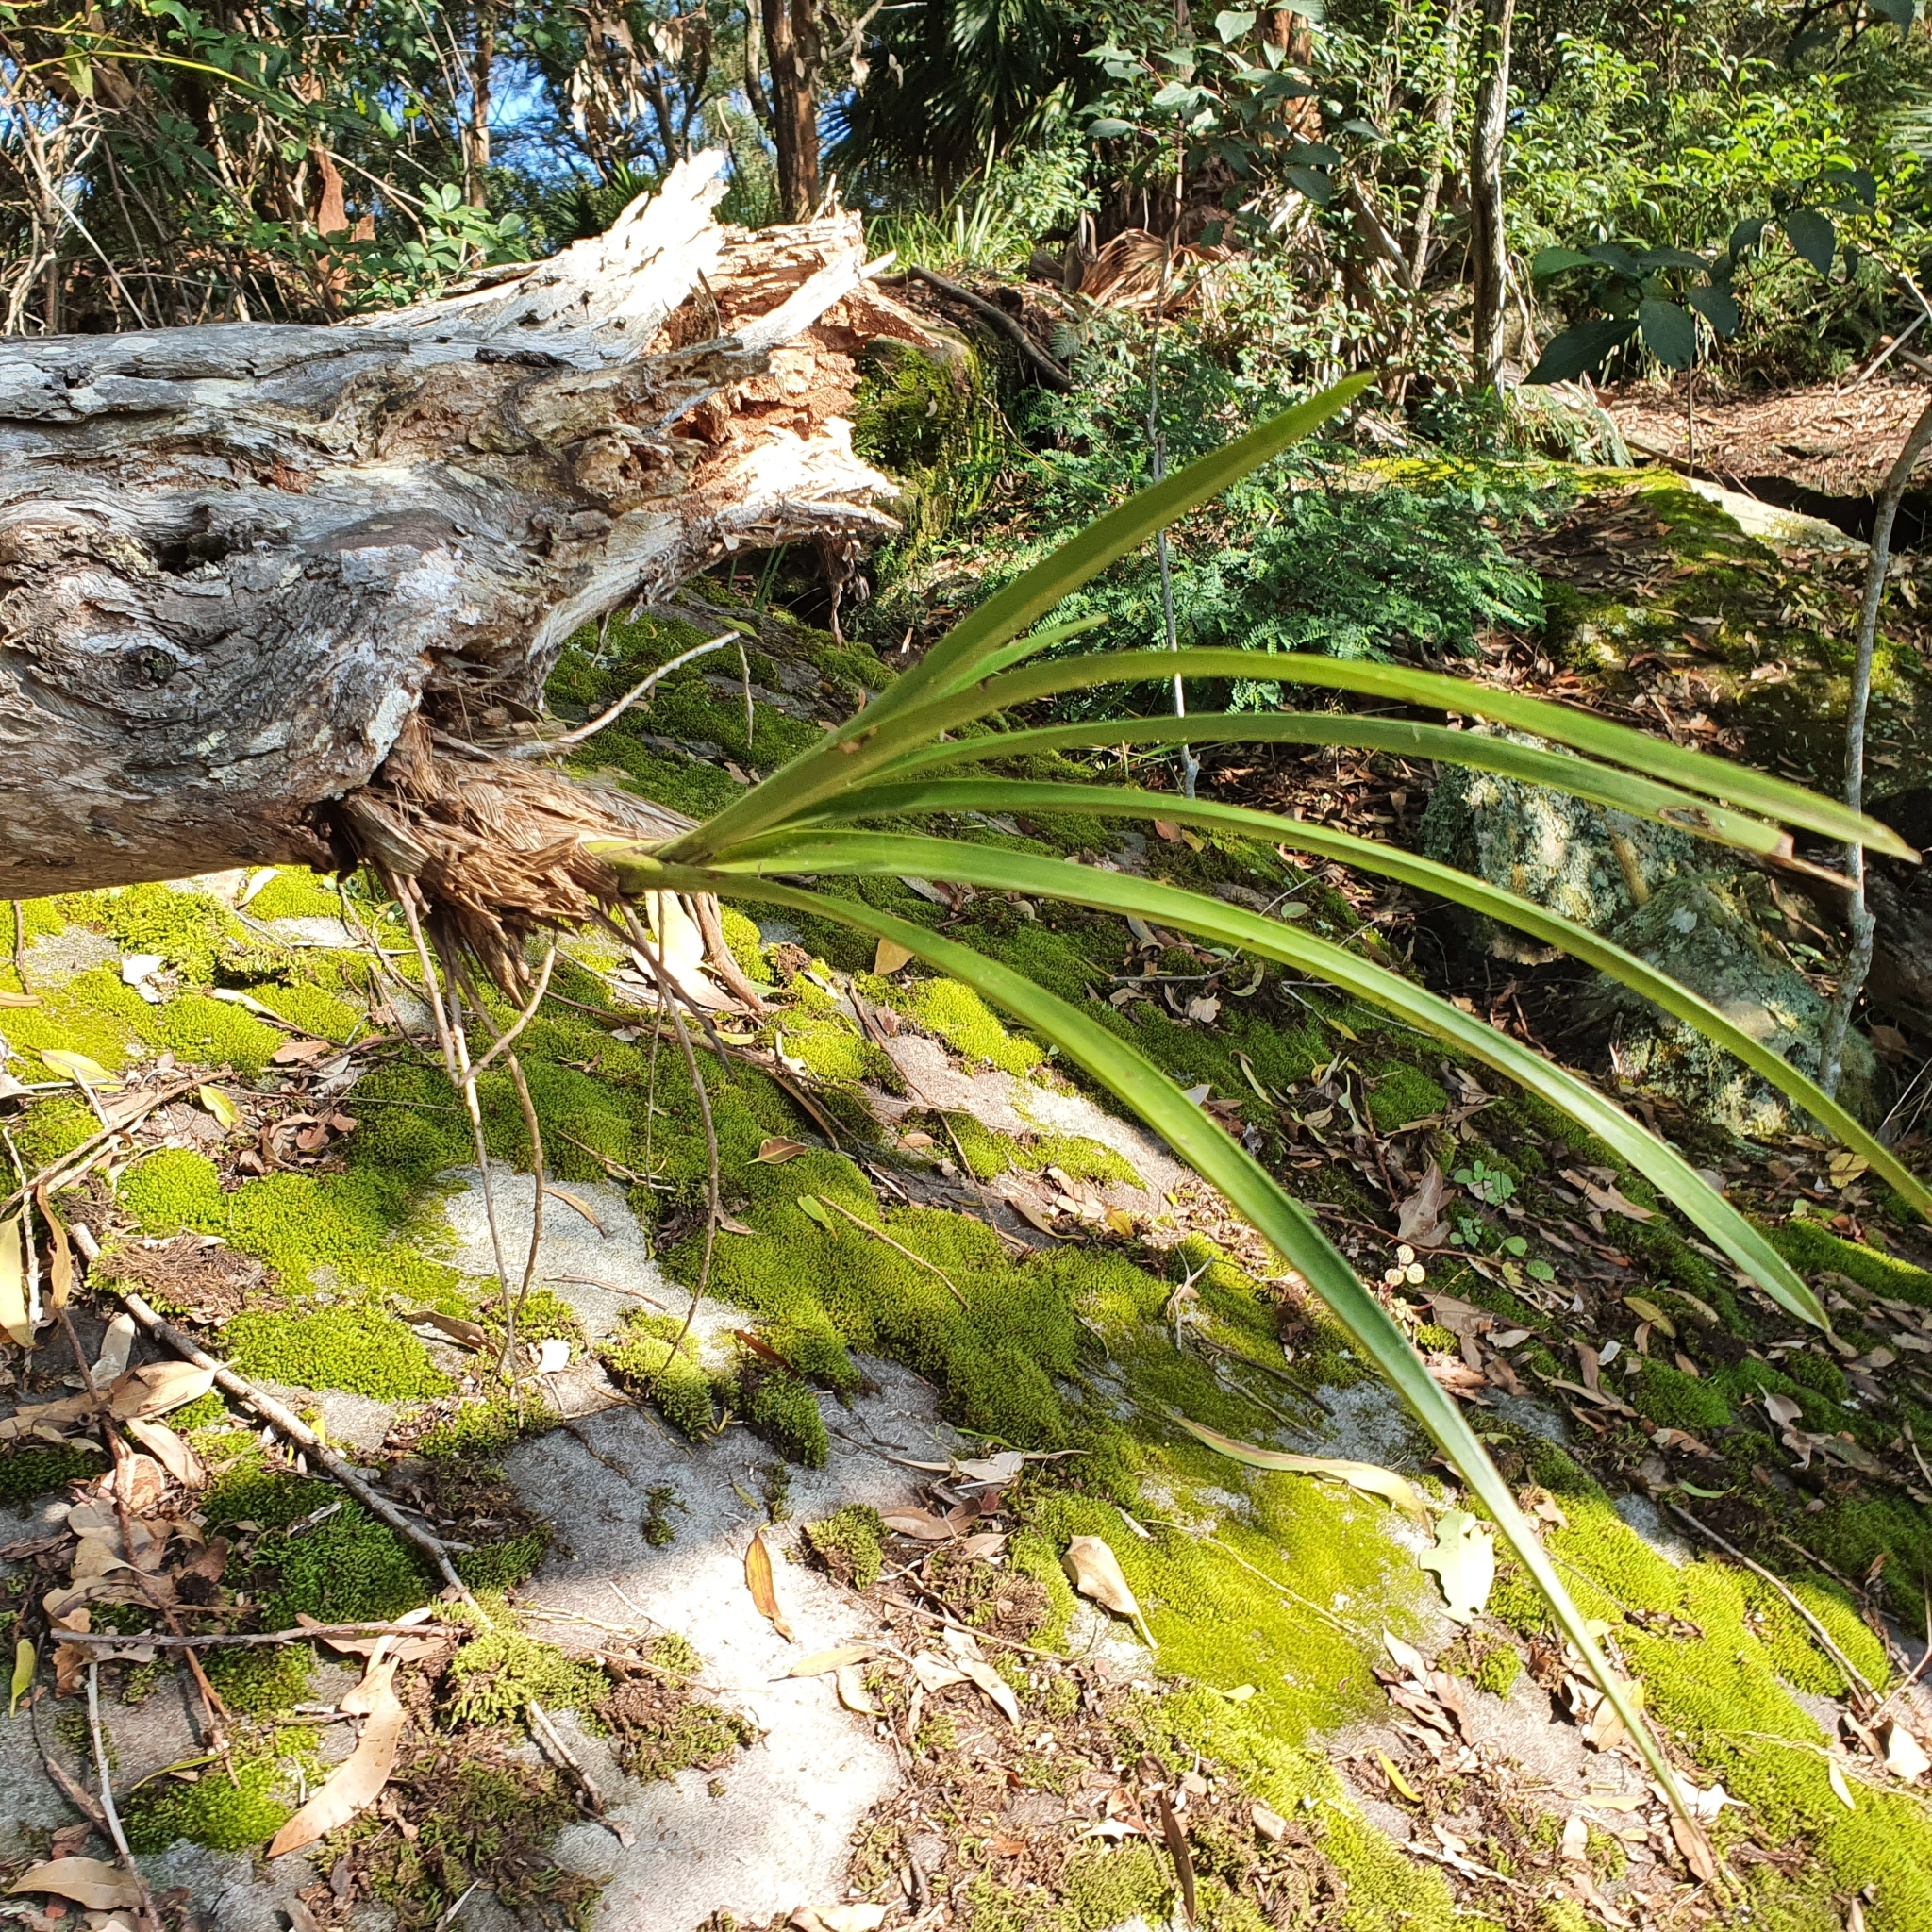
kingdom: Plantae
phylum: Tracheophyta
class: Liliopsida
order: Asparagales
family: Orchidaceae
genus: Cymbidium
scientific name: Cymbidium suave
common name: Snake orchid
